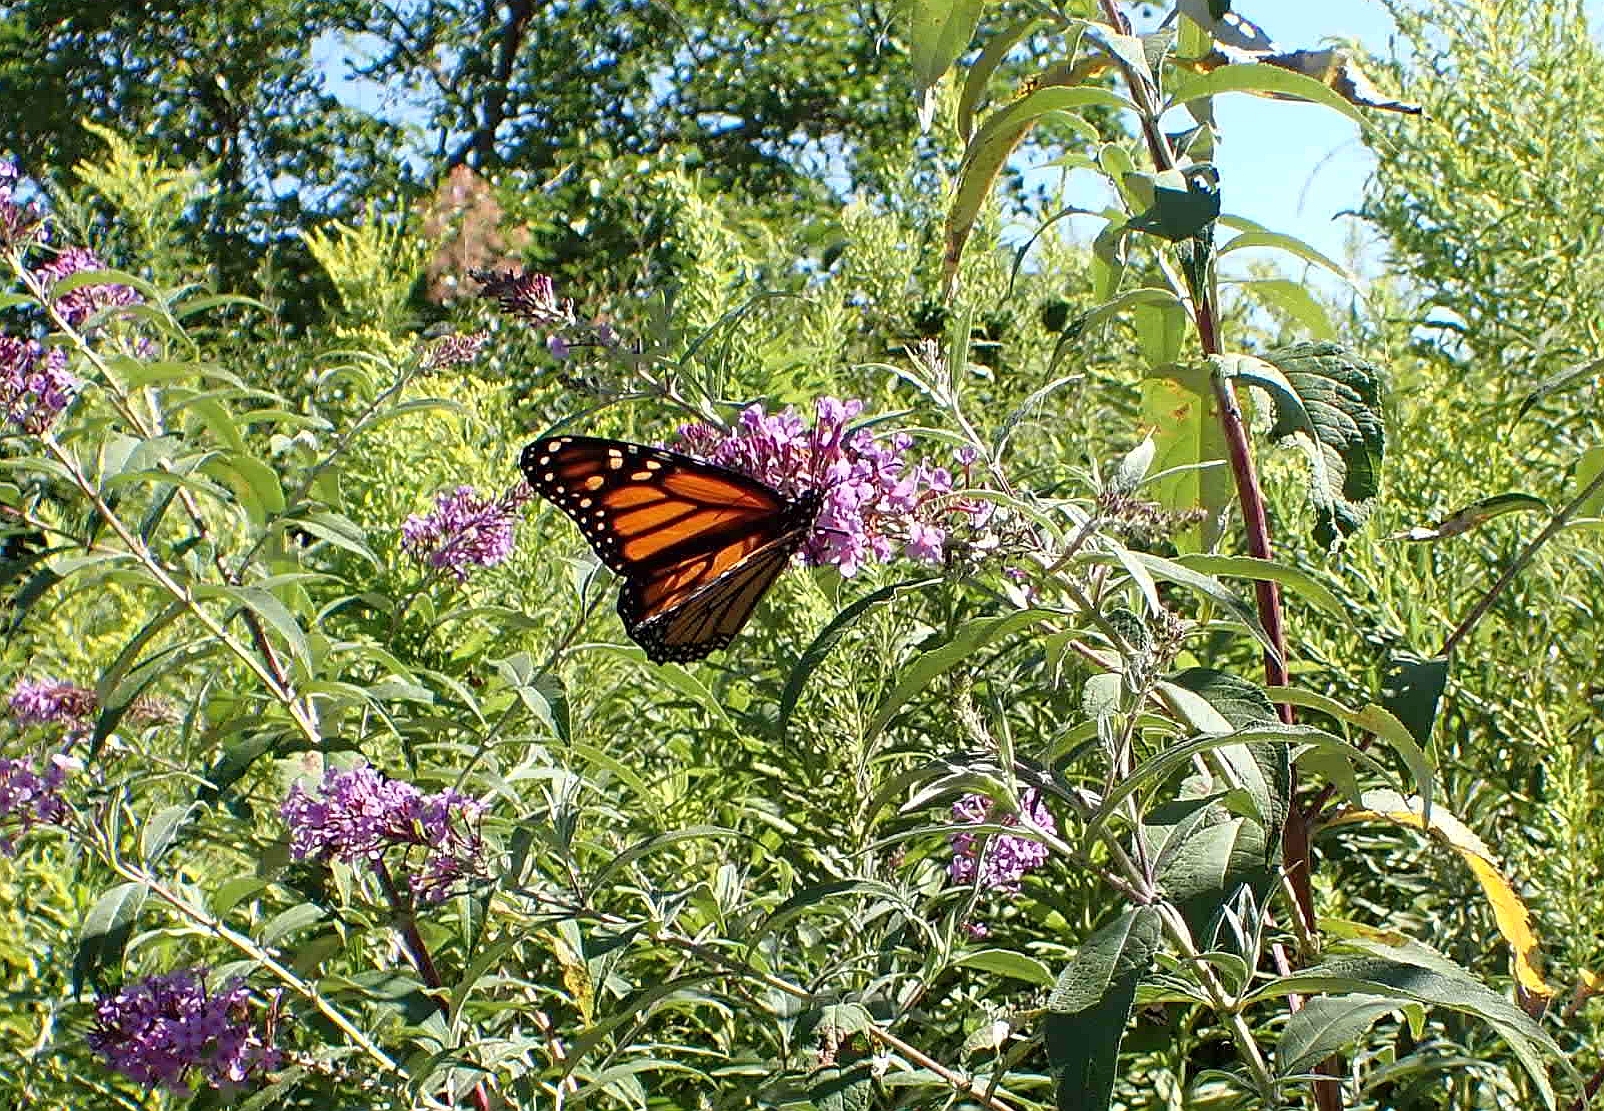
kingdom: Animalia
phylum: Arthropoda
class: Insecta
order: Lepidoptera
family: Nymphalidae
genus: Danaus
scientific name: Danaus plexippus
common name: Monarch
